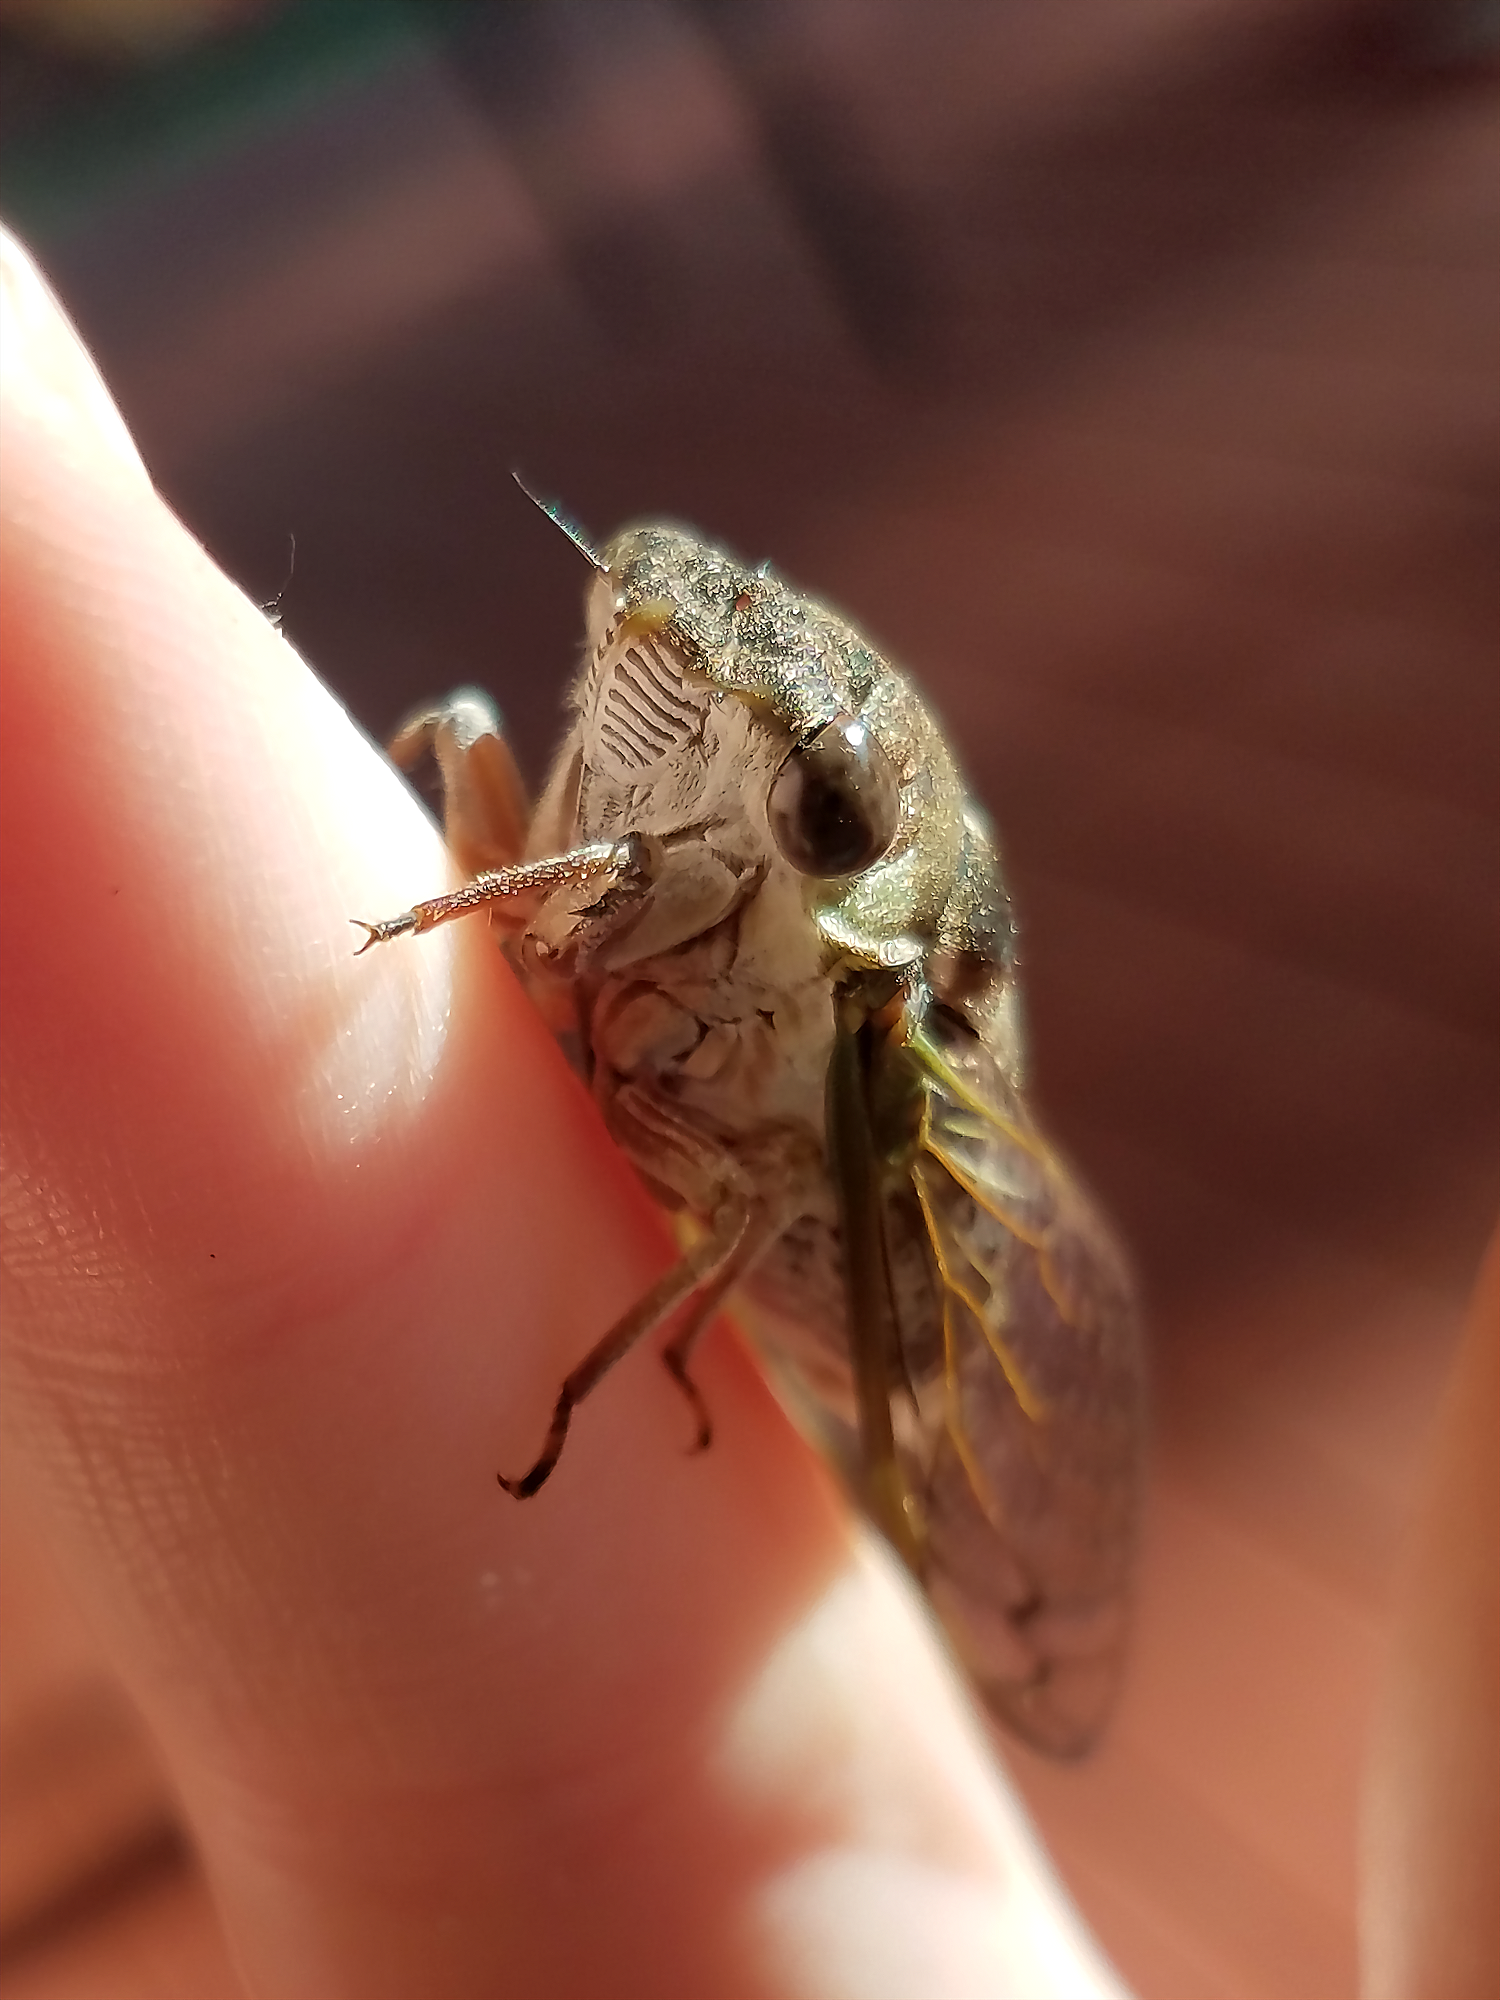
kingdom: Animalia
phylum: Arthropoda
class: Insecta
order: Hemiptera
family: Cicadidae
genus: Neotibicen
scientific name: Neotibicen davisi
